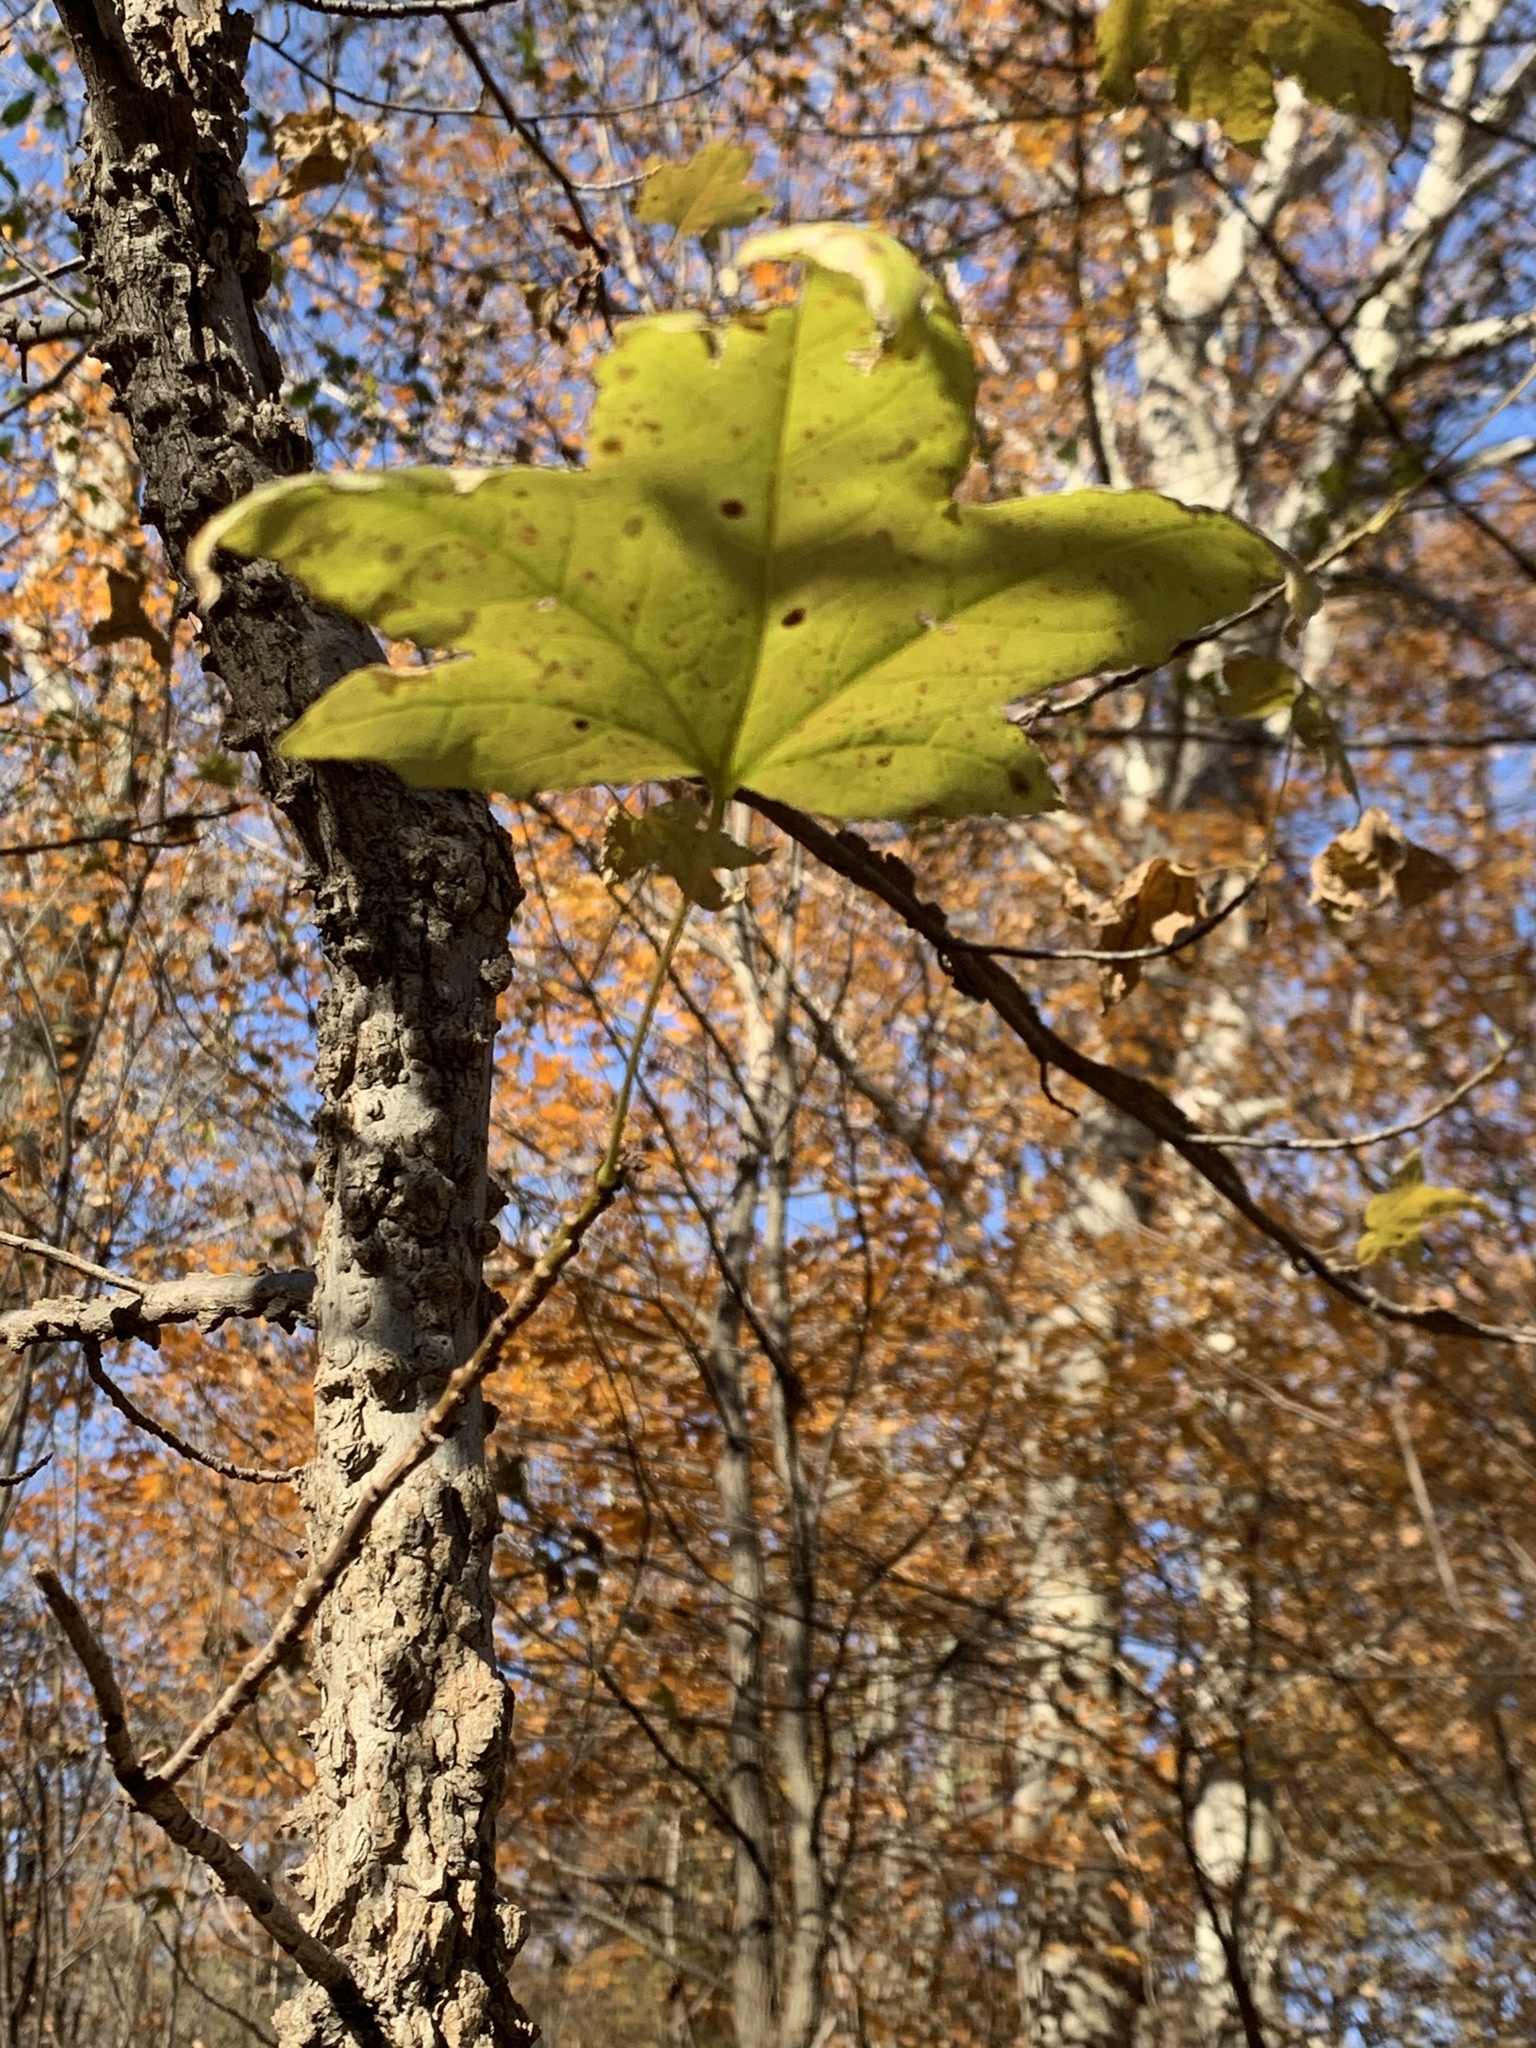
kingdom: Plantae
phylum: Tracheophyta
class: Magnoliopsida
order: Saxifragales
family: Altingiaceae
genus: Liquidambar
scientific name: Liquidambar styraciflua
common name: Sweet gum
